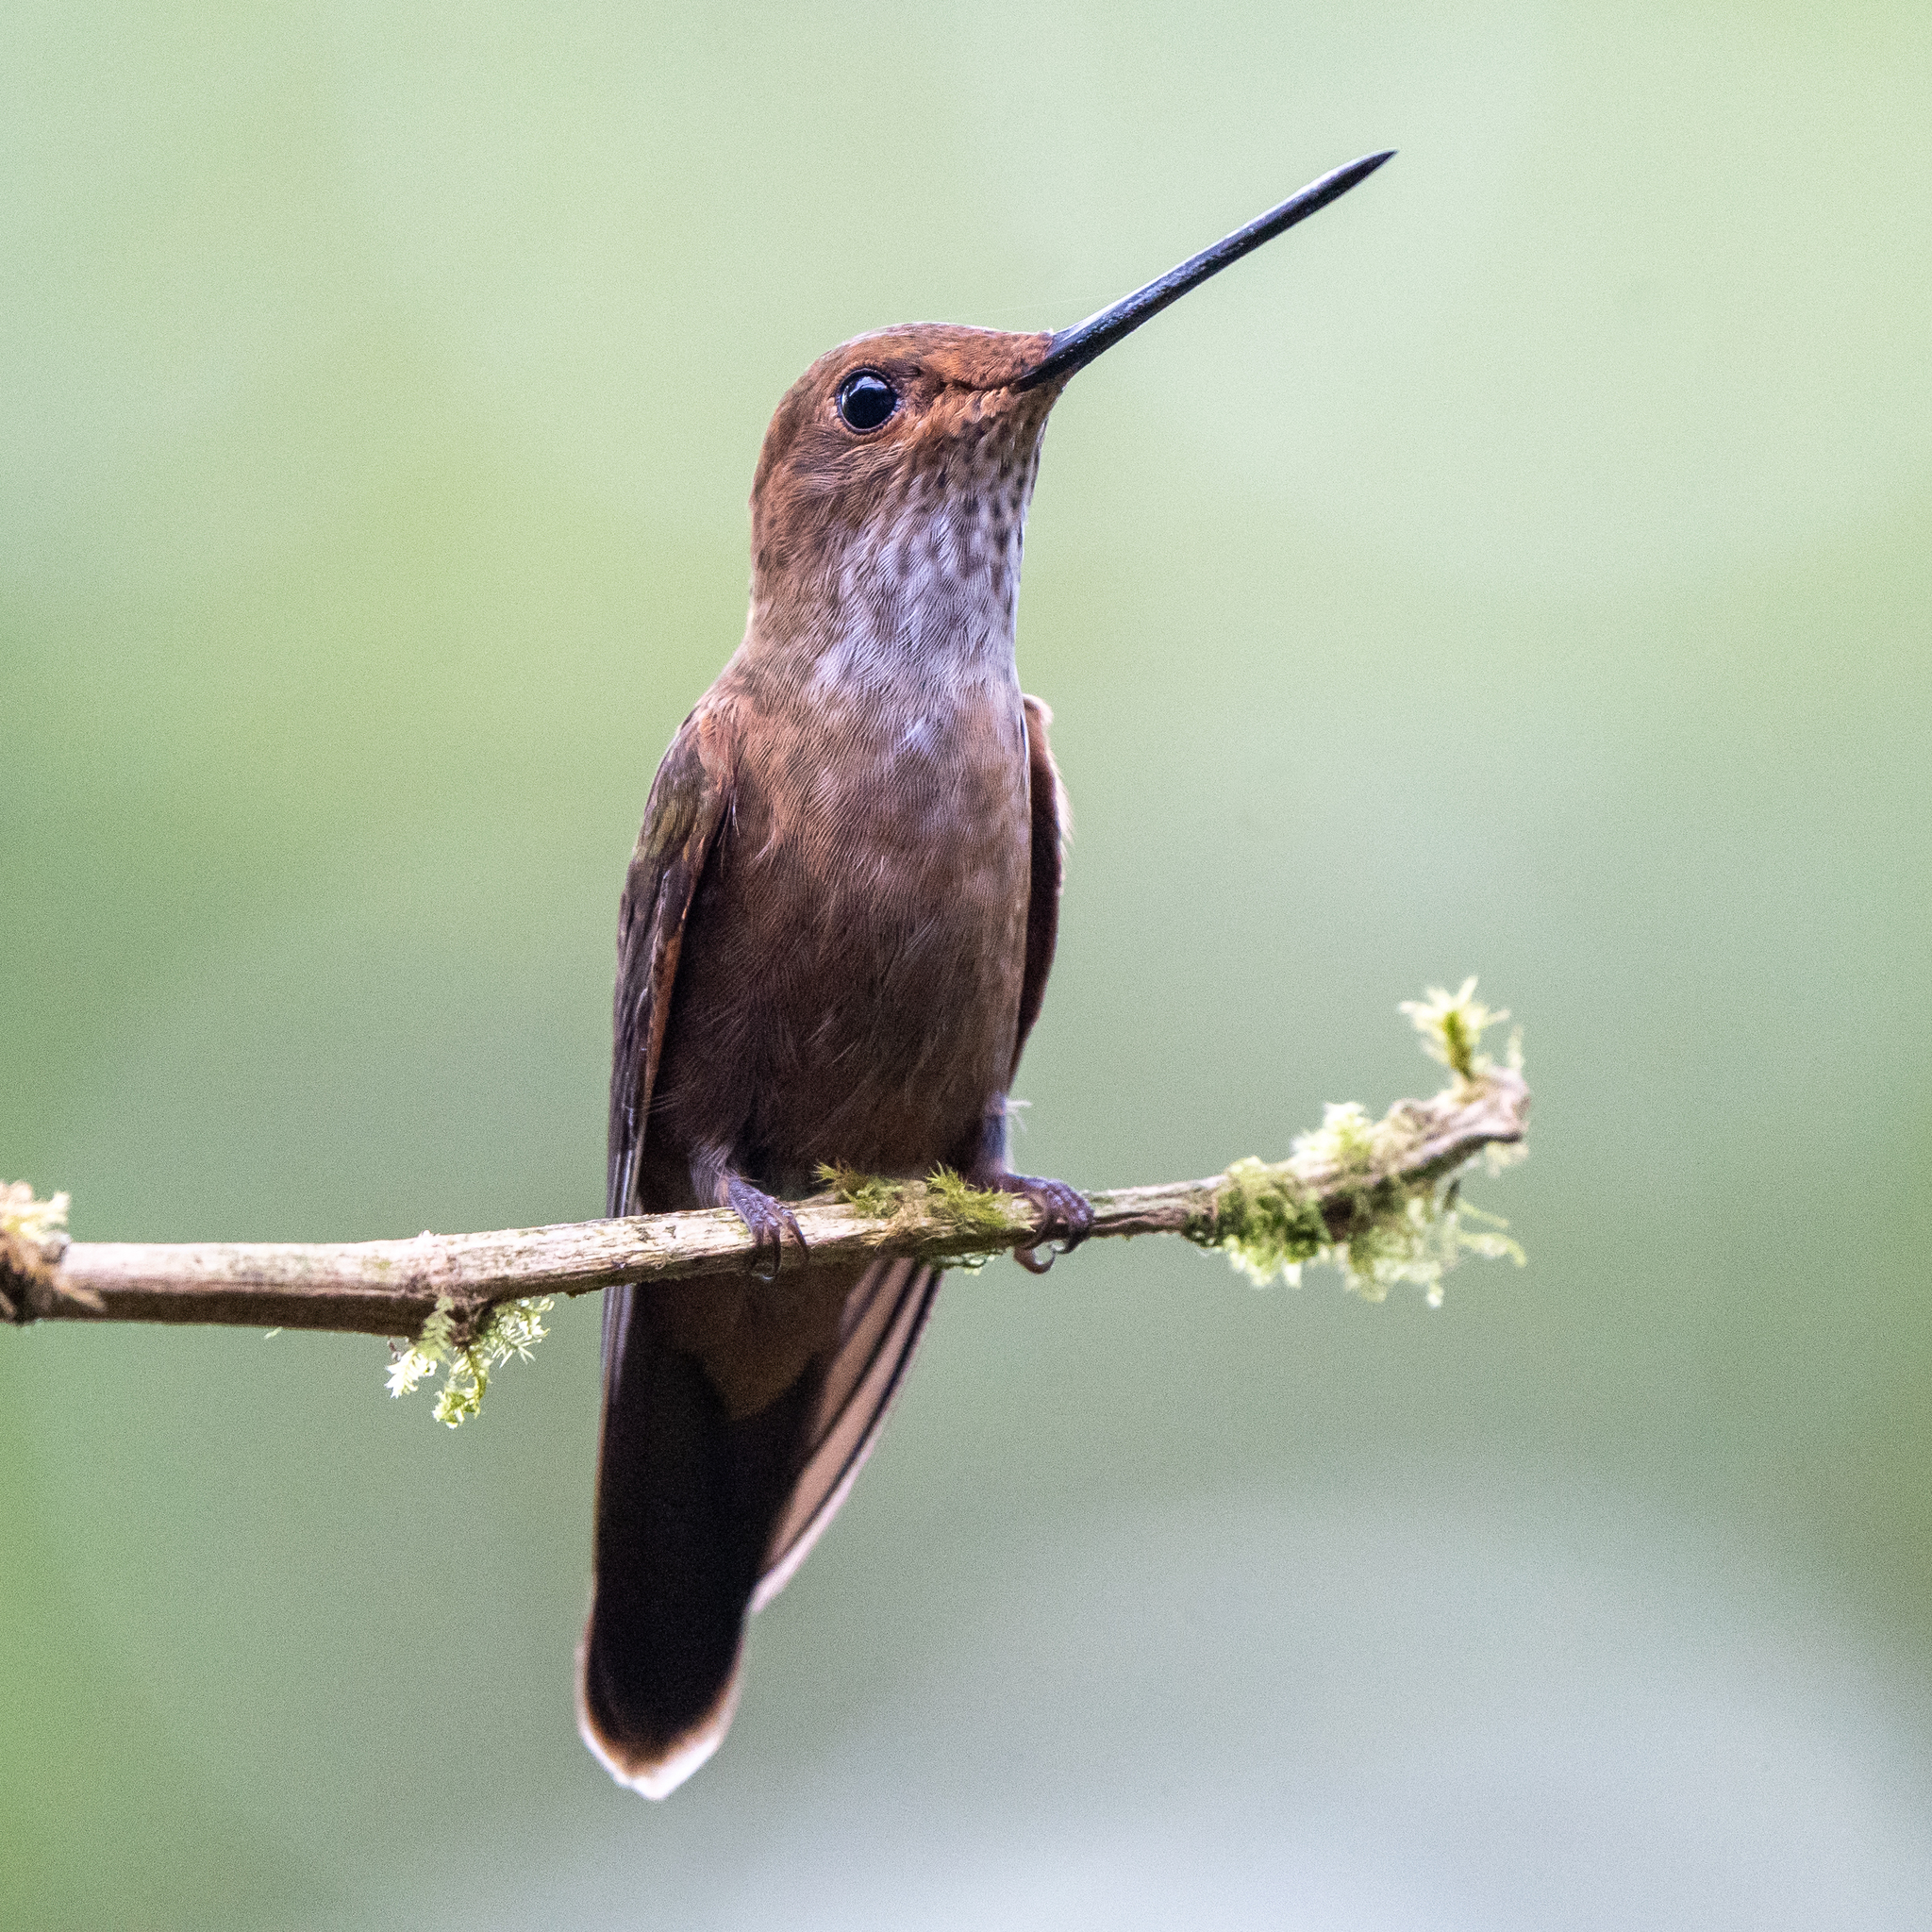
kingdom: Animalia
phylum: Chordata
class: Aves
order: Apodiformes
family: Trochilidae
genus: Coeligena
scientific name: Coeligena coeligena
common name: Bronzy inca
